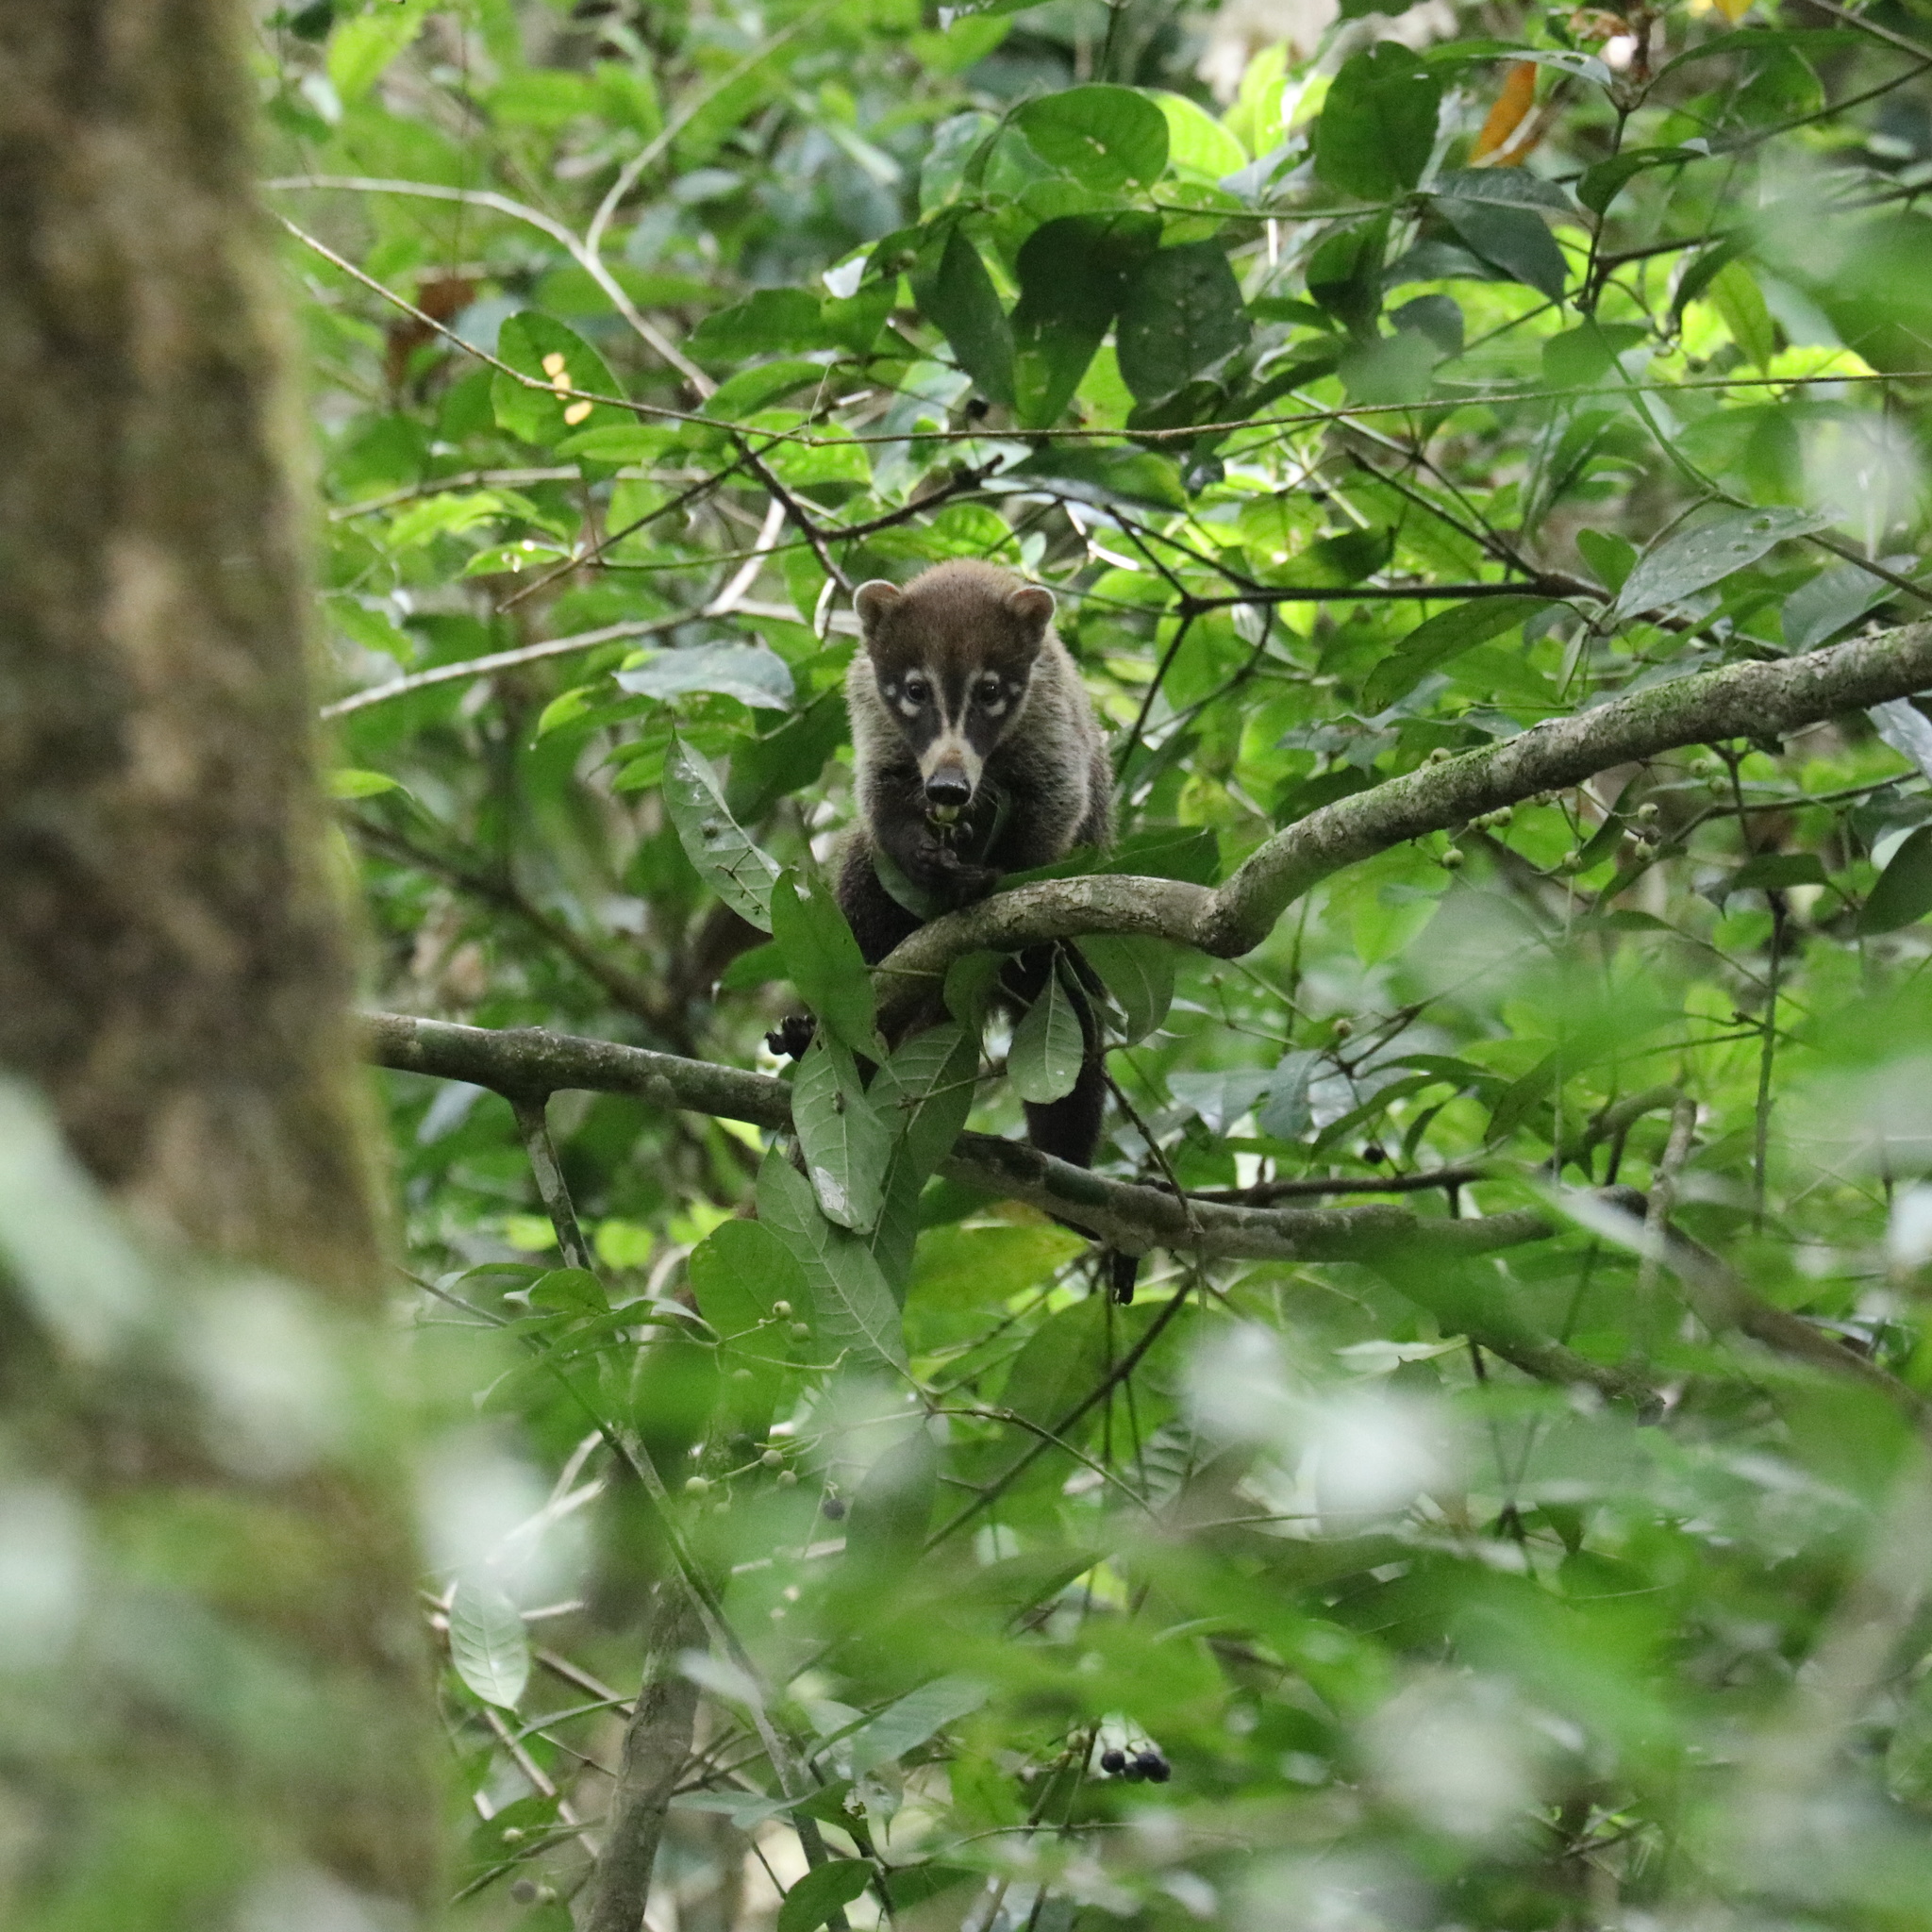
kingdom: Animalia
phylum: Chordata
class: Mammalia
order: Carnivora
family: Procyonidae
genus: Nasua
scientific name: Nasua narica
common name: White-nosed coati
